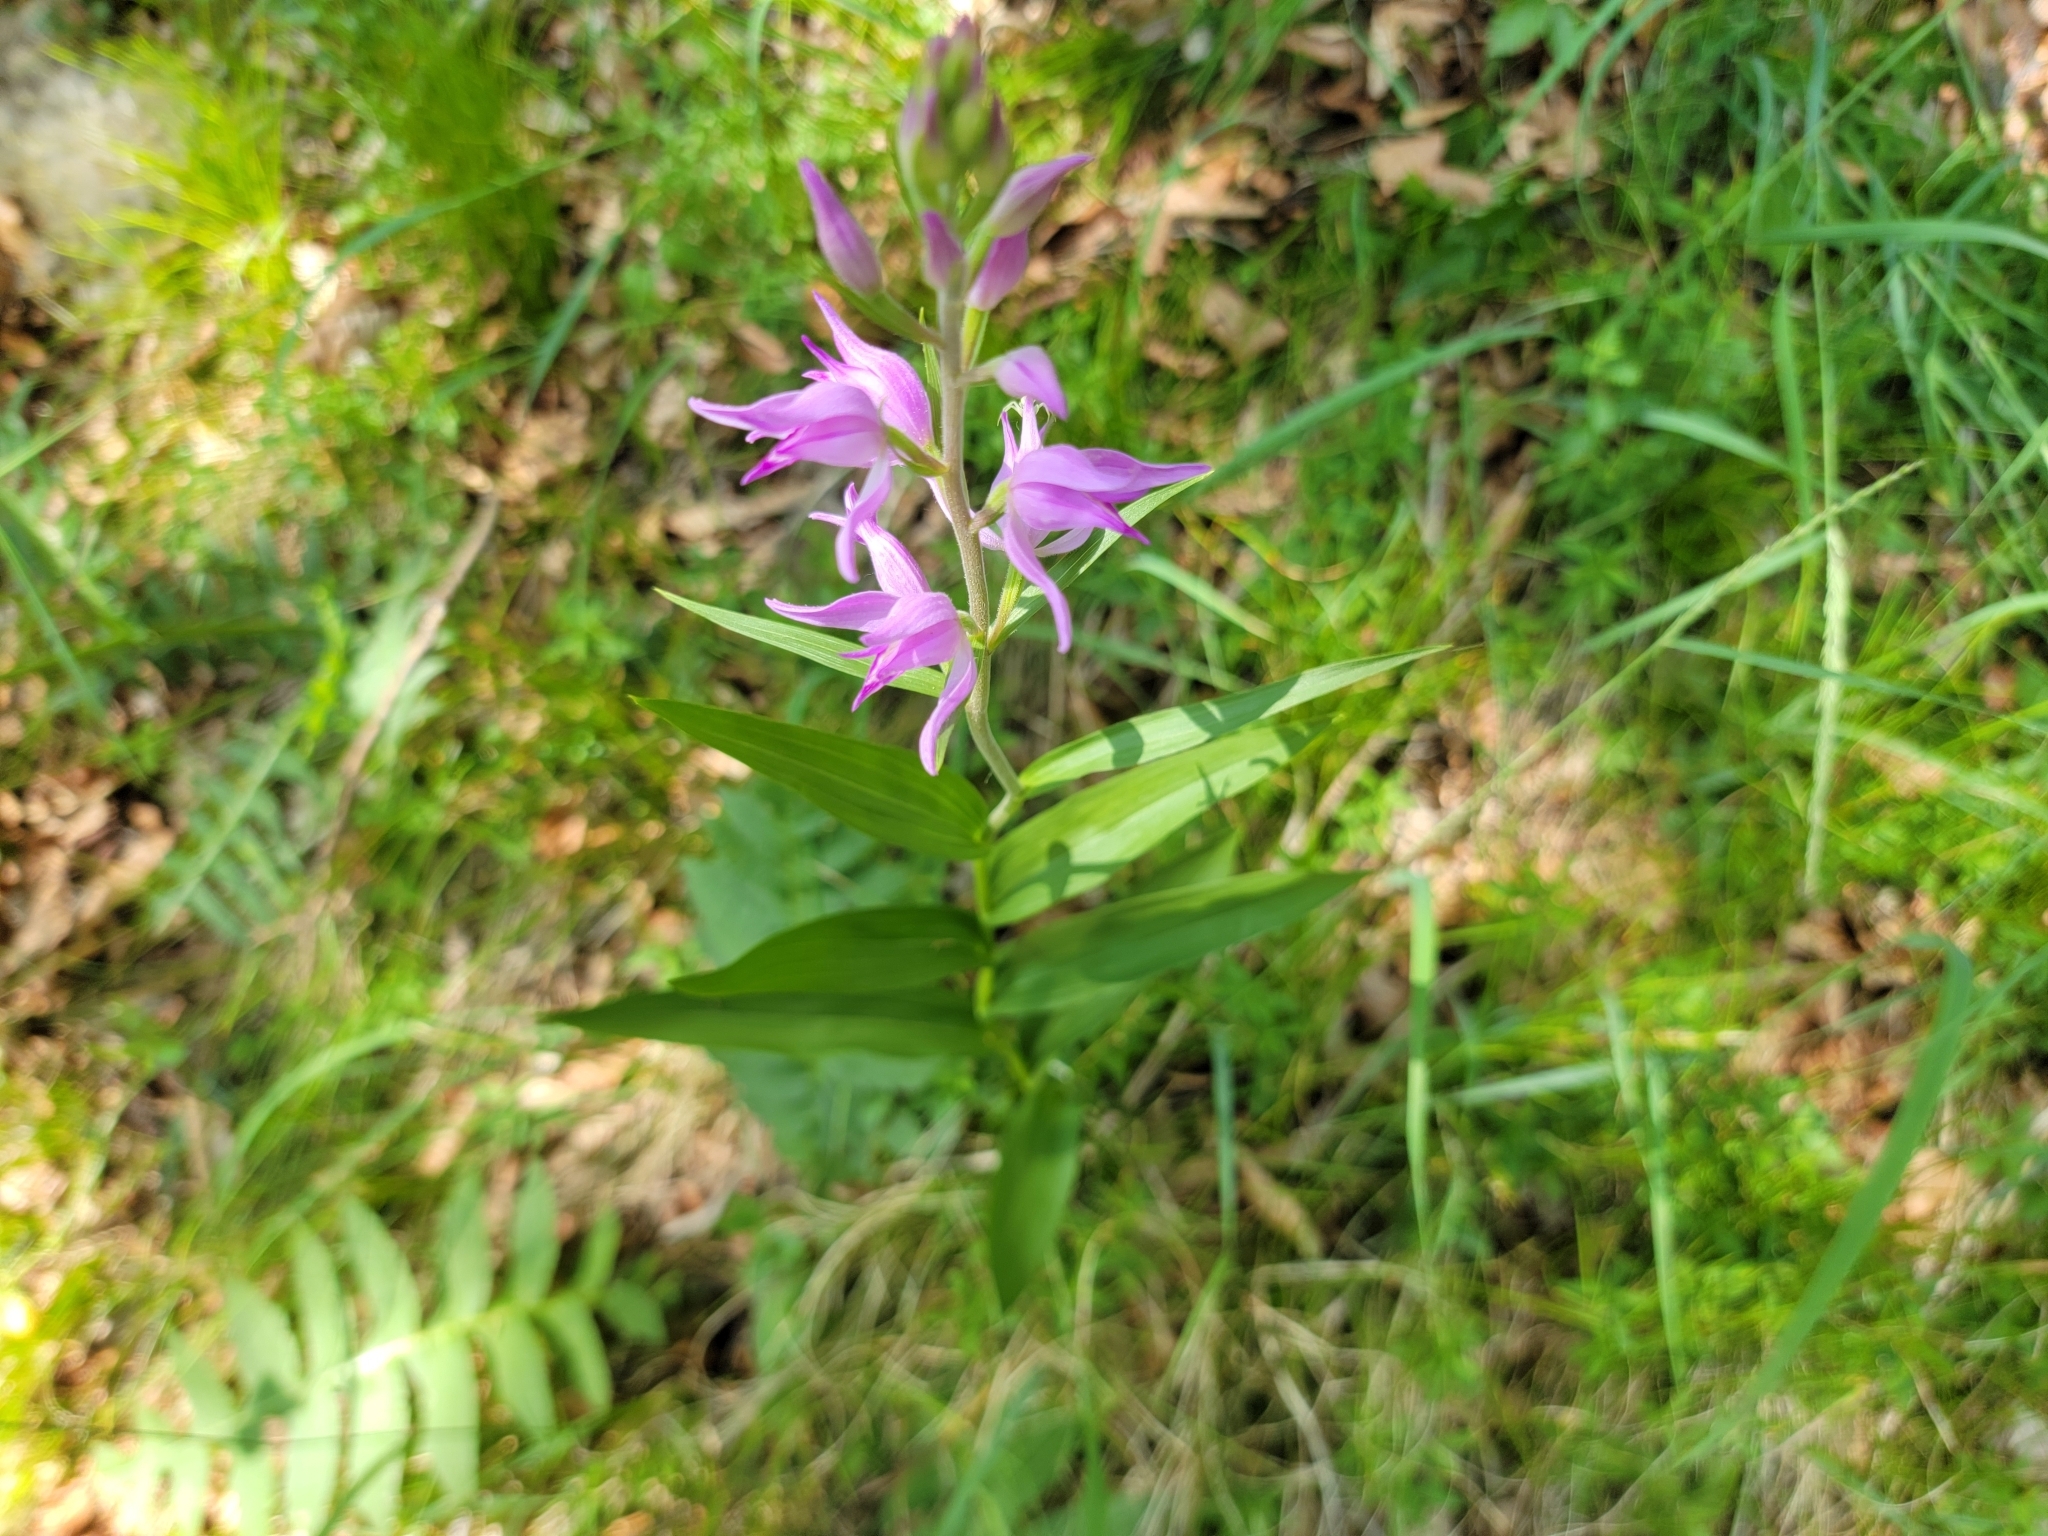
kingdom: Plantae
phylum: Tracheophyta
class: Liliopsida
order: Asparagales
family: Orchidaceae
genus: Cephalanthera
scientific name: Cephalanthera rubra
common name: Red helleborine
